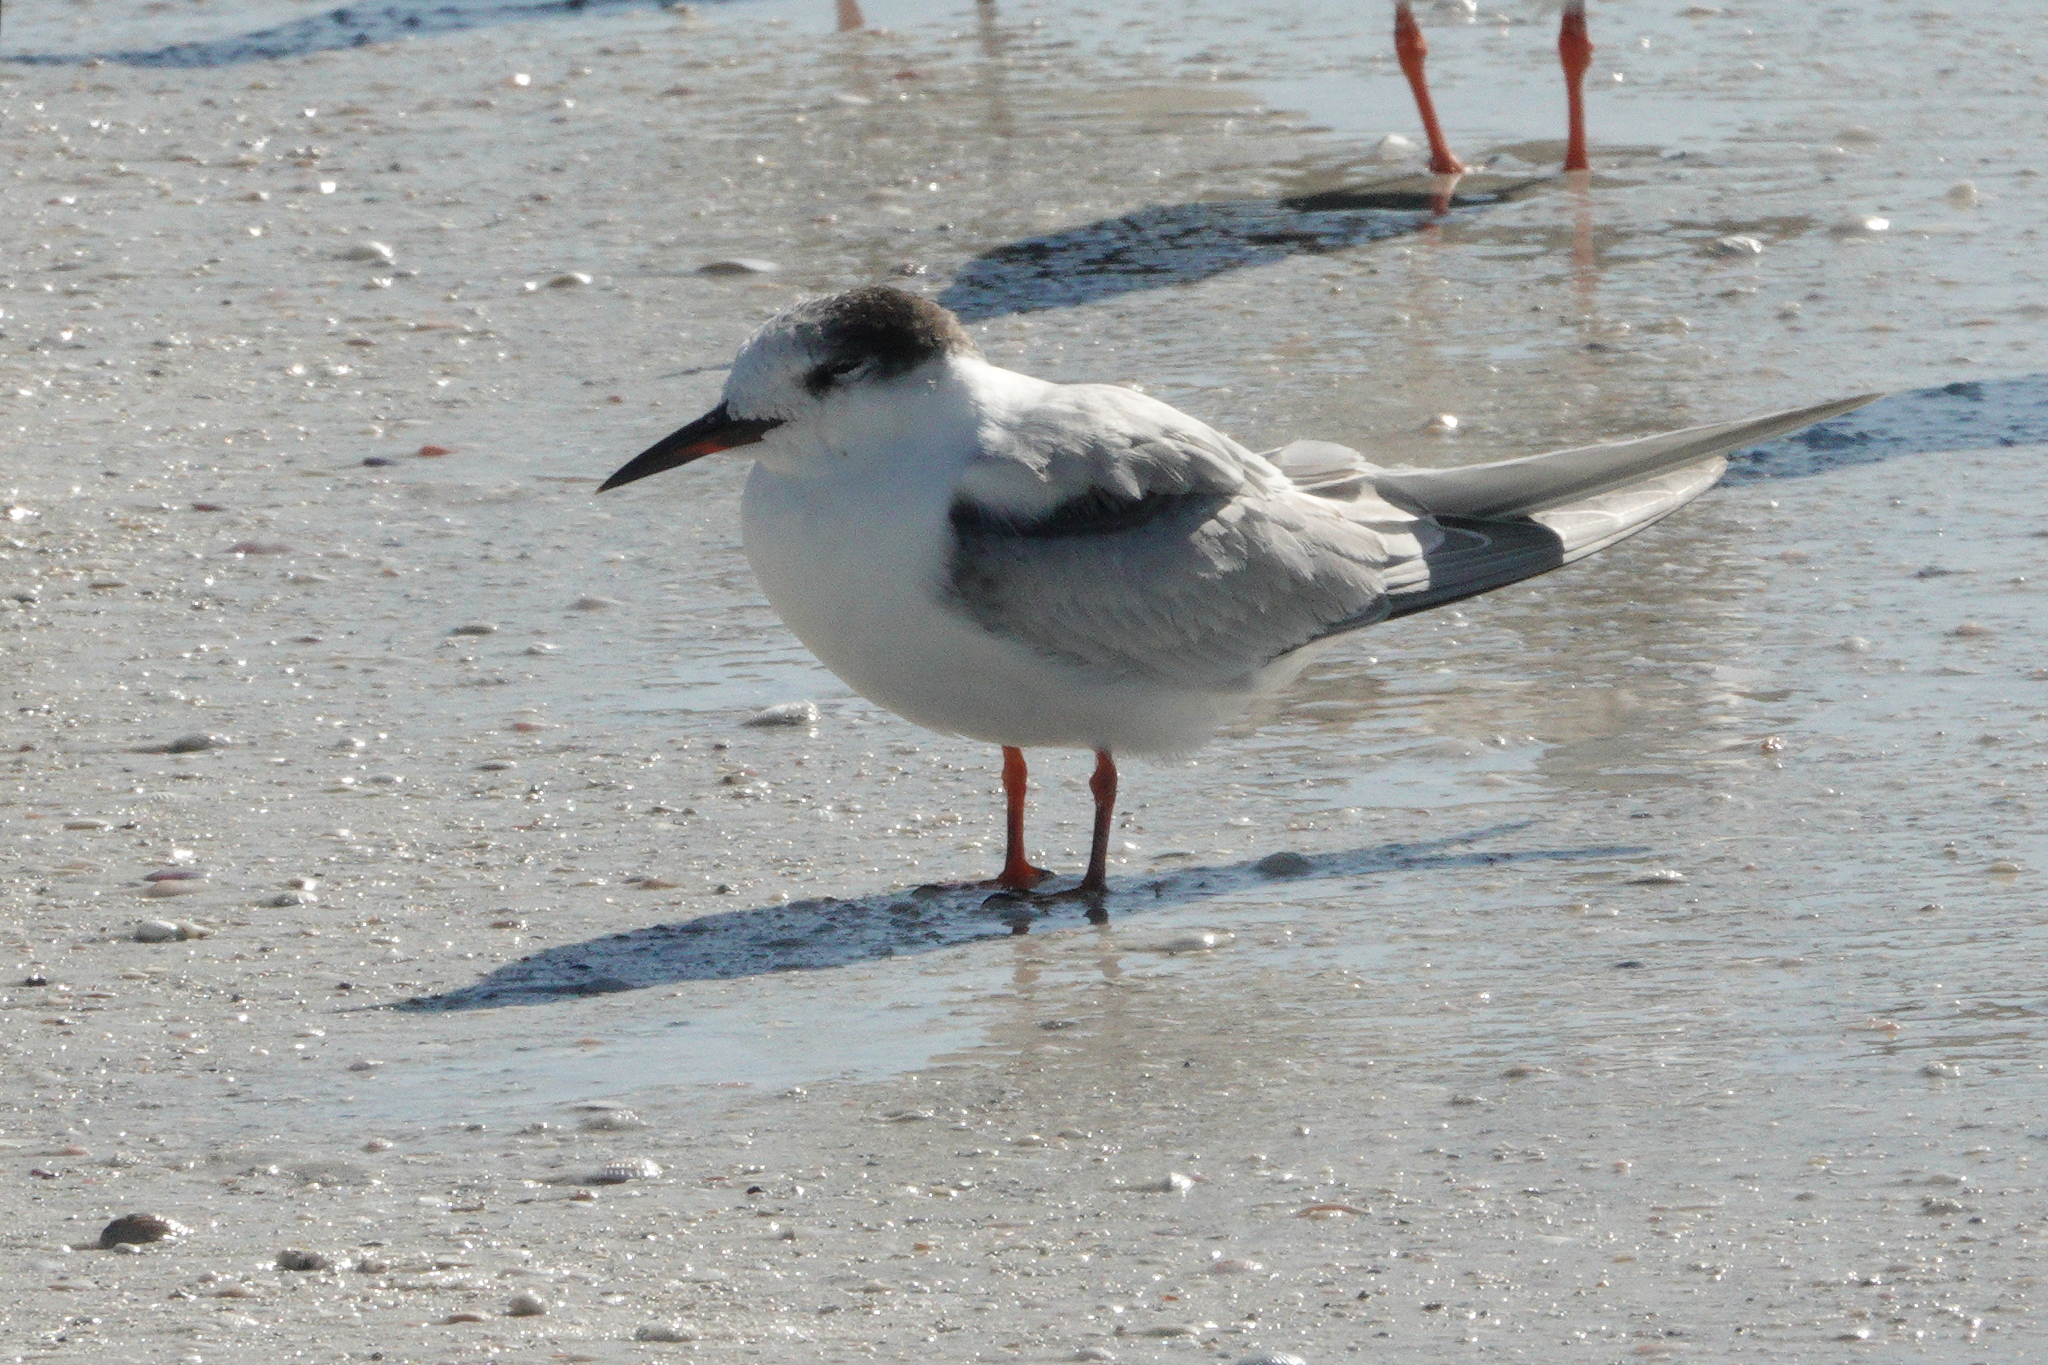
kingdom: Animalia
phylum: Chordata
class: Aves
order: Charadriiformes
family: Laridae
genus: Sterna
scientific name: Sterna hirundo
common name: Common tern
